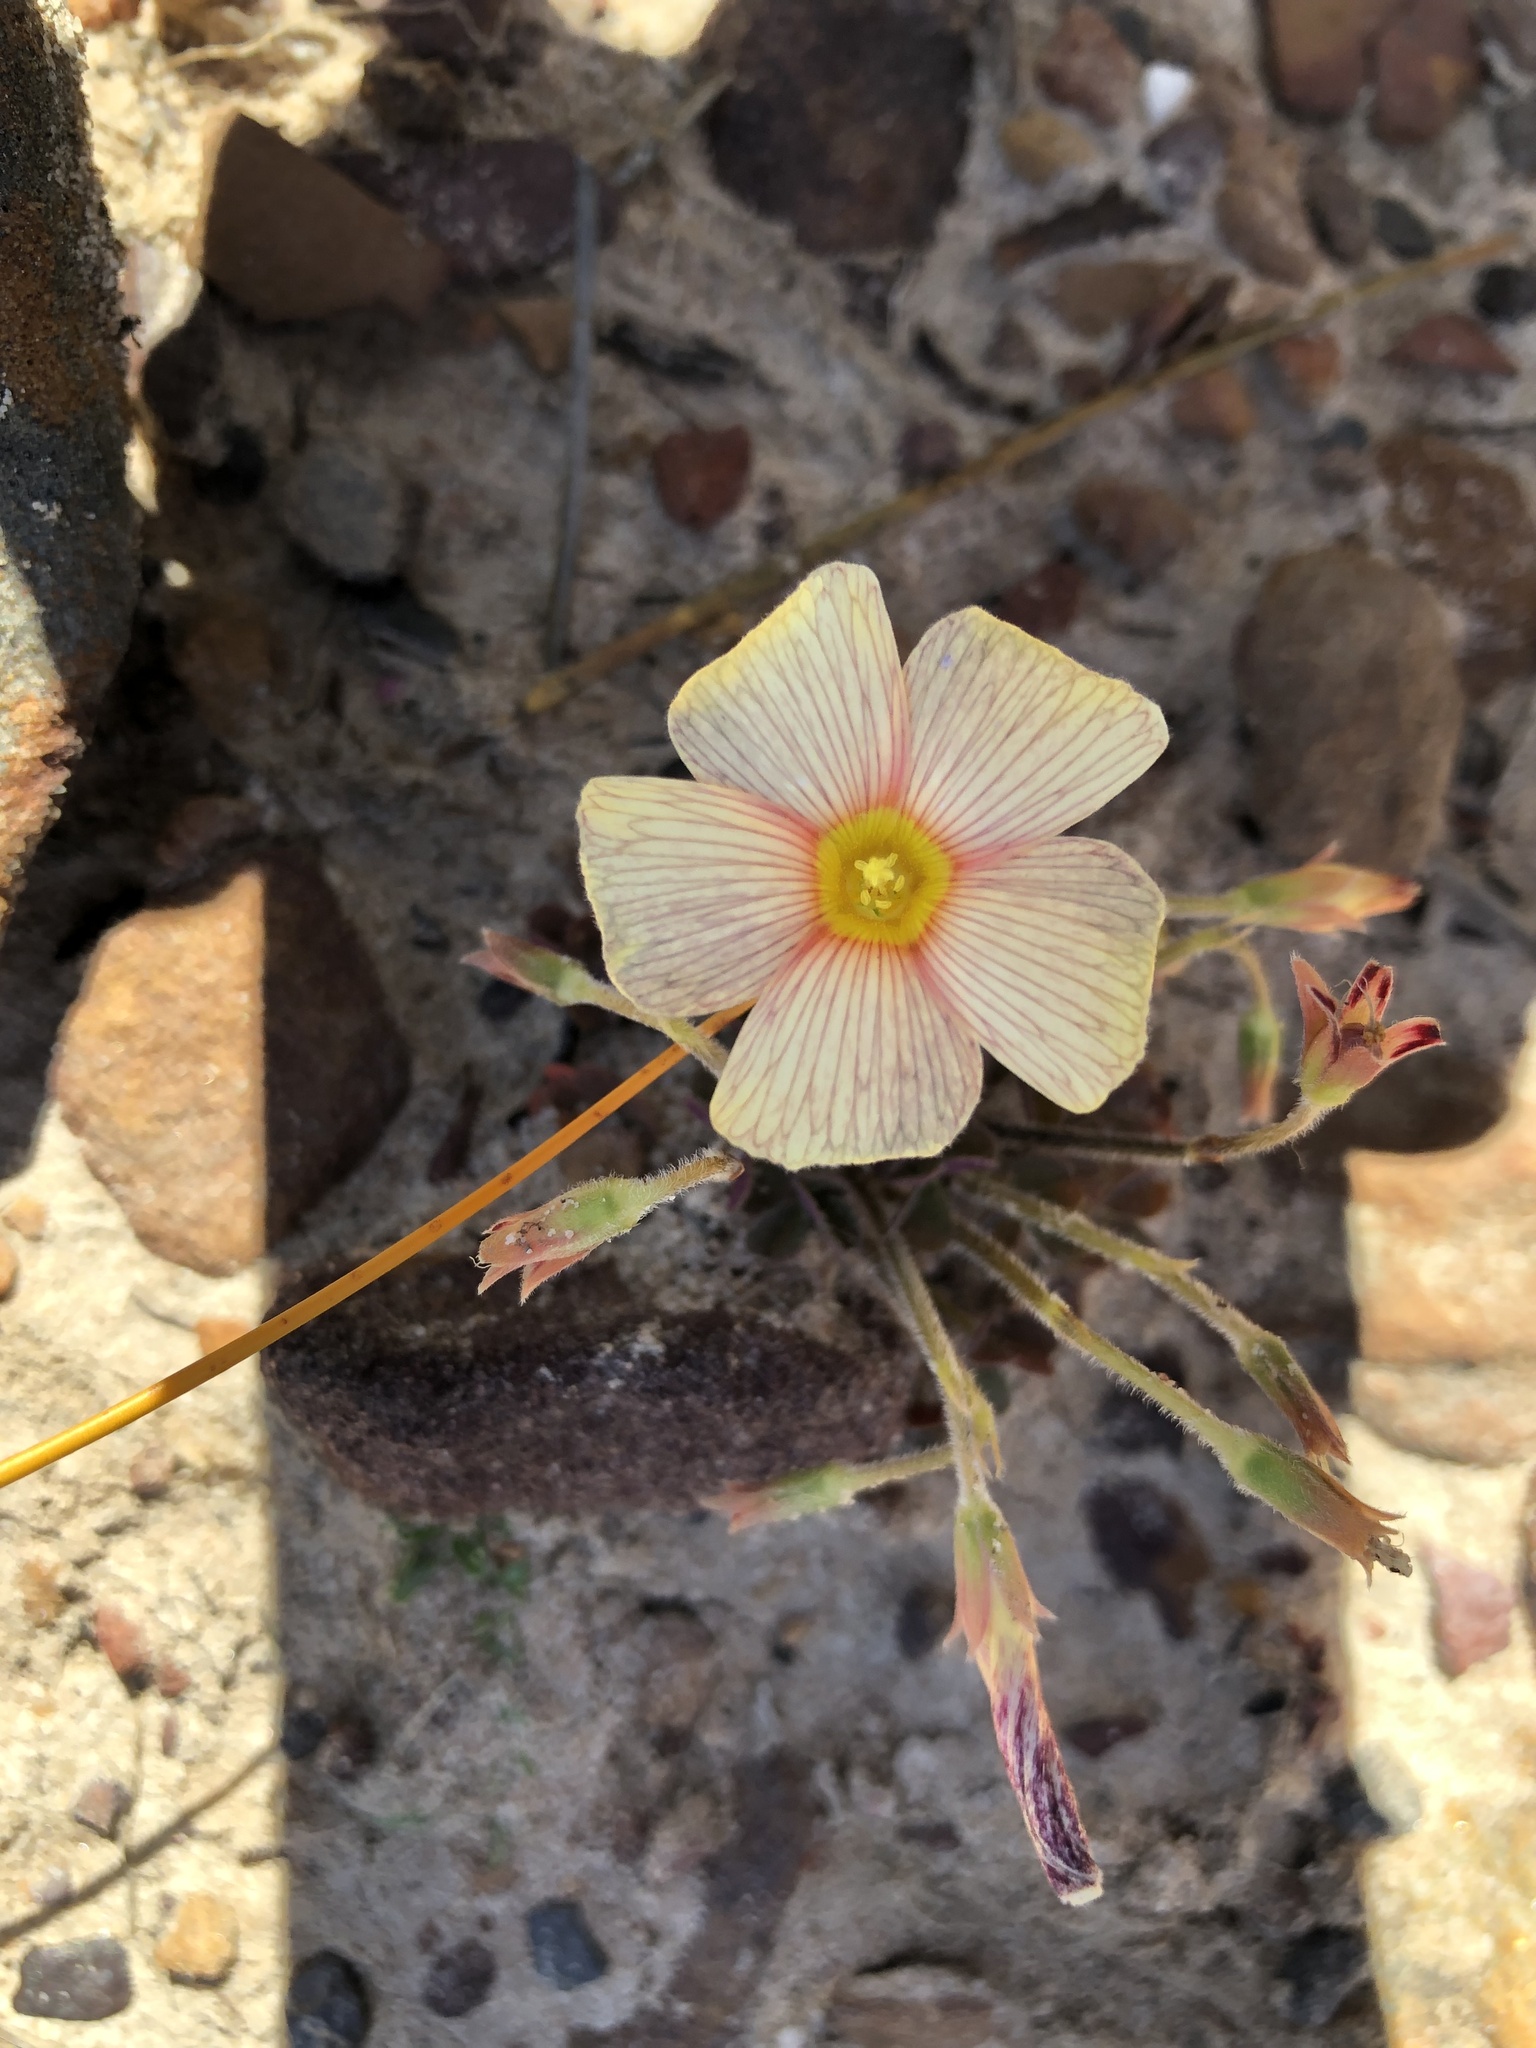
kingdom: Plantae
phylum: Tracheophyta
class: Magnoliopsida
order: Oxalidales
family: Oxalidaceae
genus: Oxalis
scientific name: Oxalis obtusa
